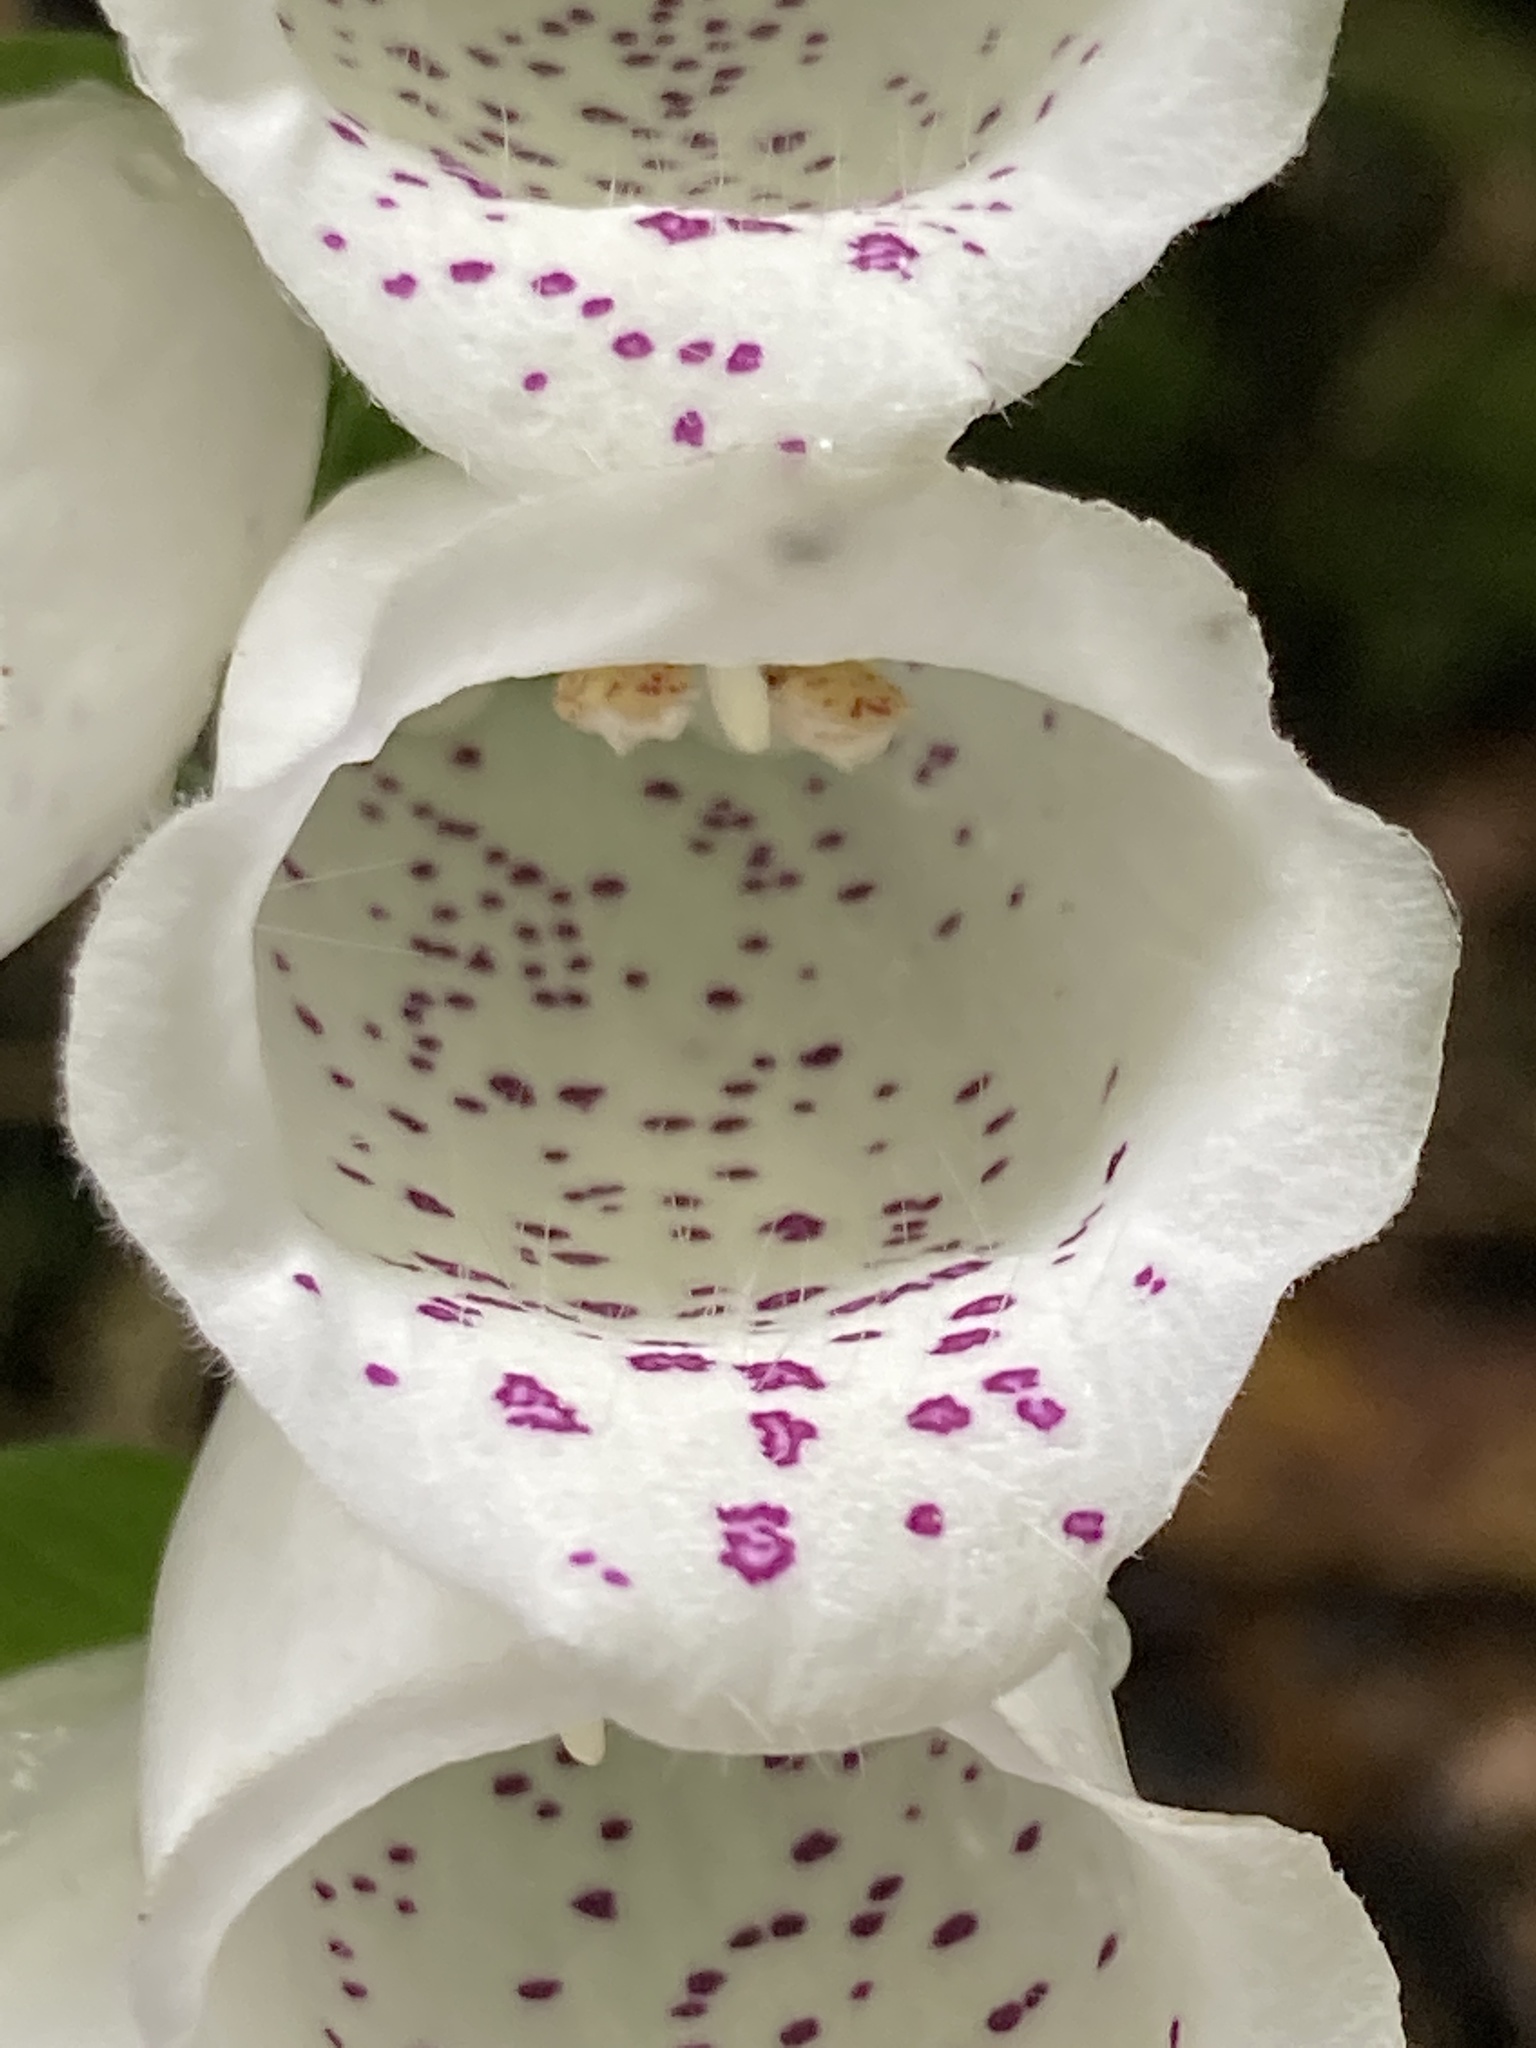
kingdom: Plantae
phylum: Tracheophyta
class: Magnoliopsida
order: Lamiales
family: Plantaginaceae
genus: Digitalis
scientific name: Digitalis purpurea
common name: Foxglove
